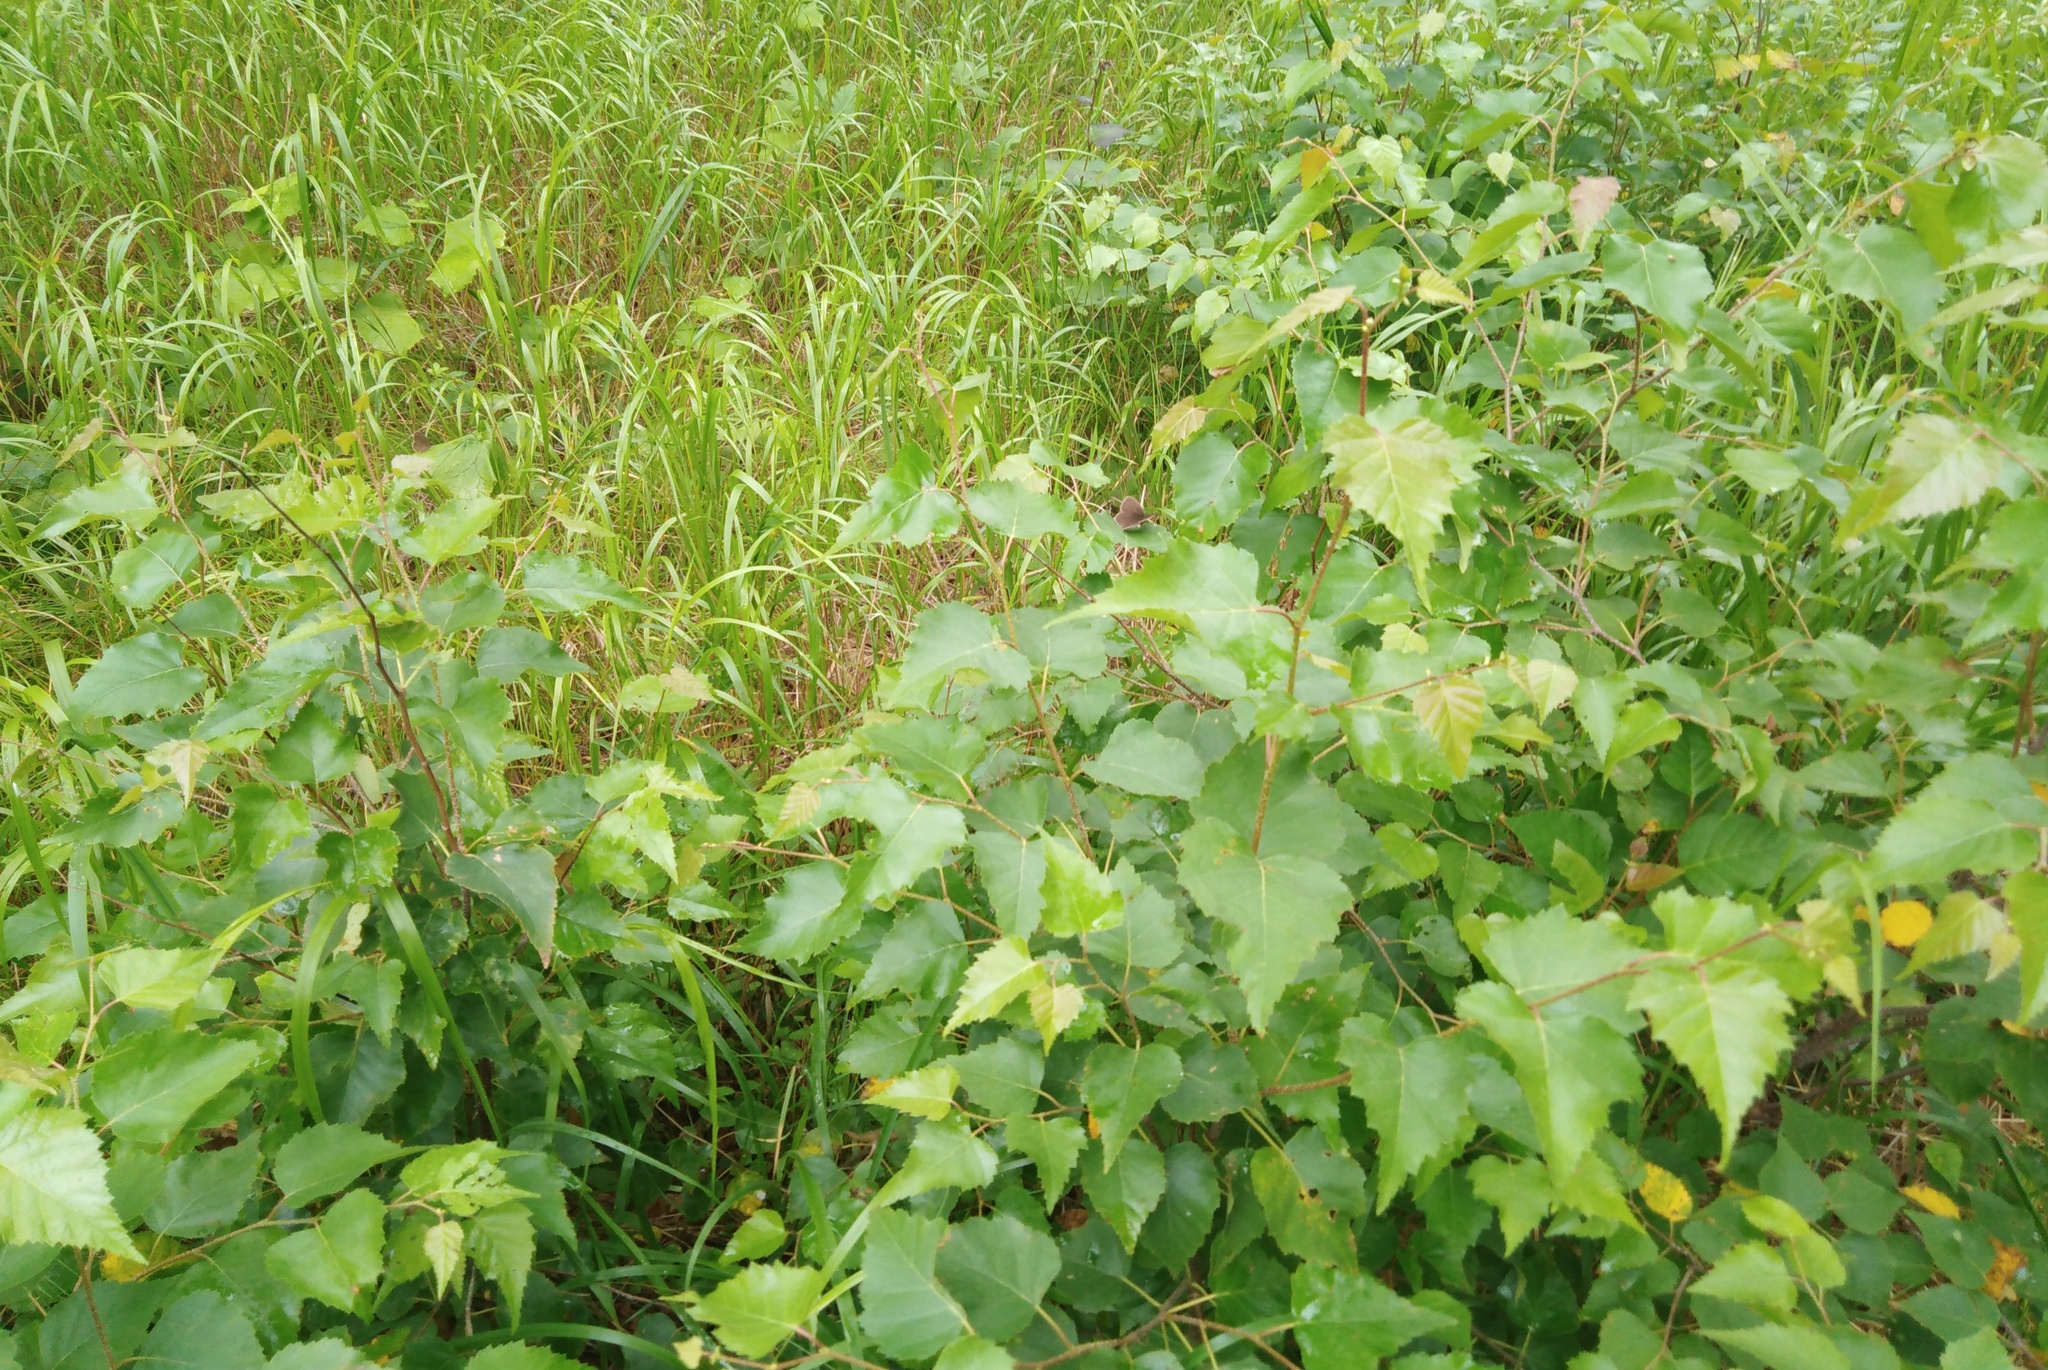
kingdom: Plantae
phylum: Tracheophyta
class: Magnoliopsida
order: Fagales
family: Betulaceae
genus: Betula
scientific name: Betula pendula
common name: Silver birch
